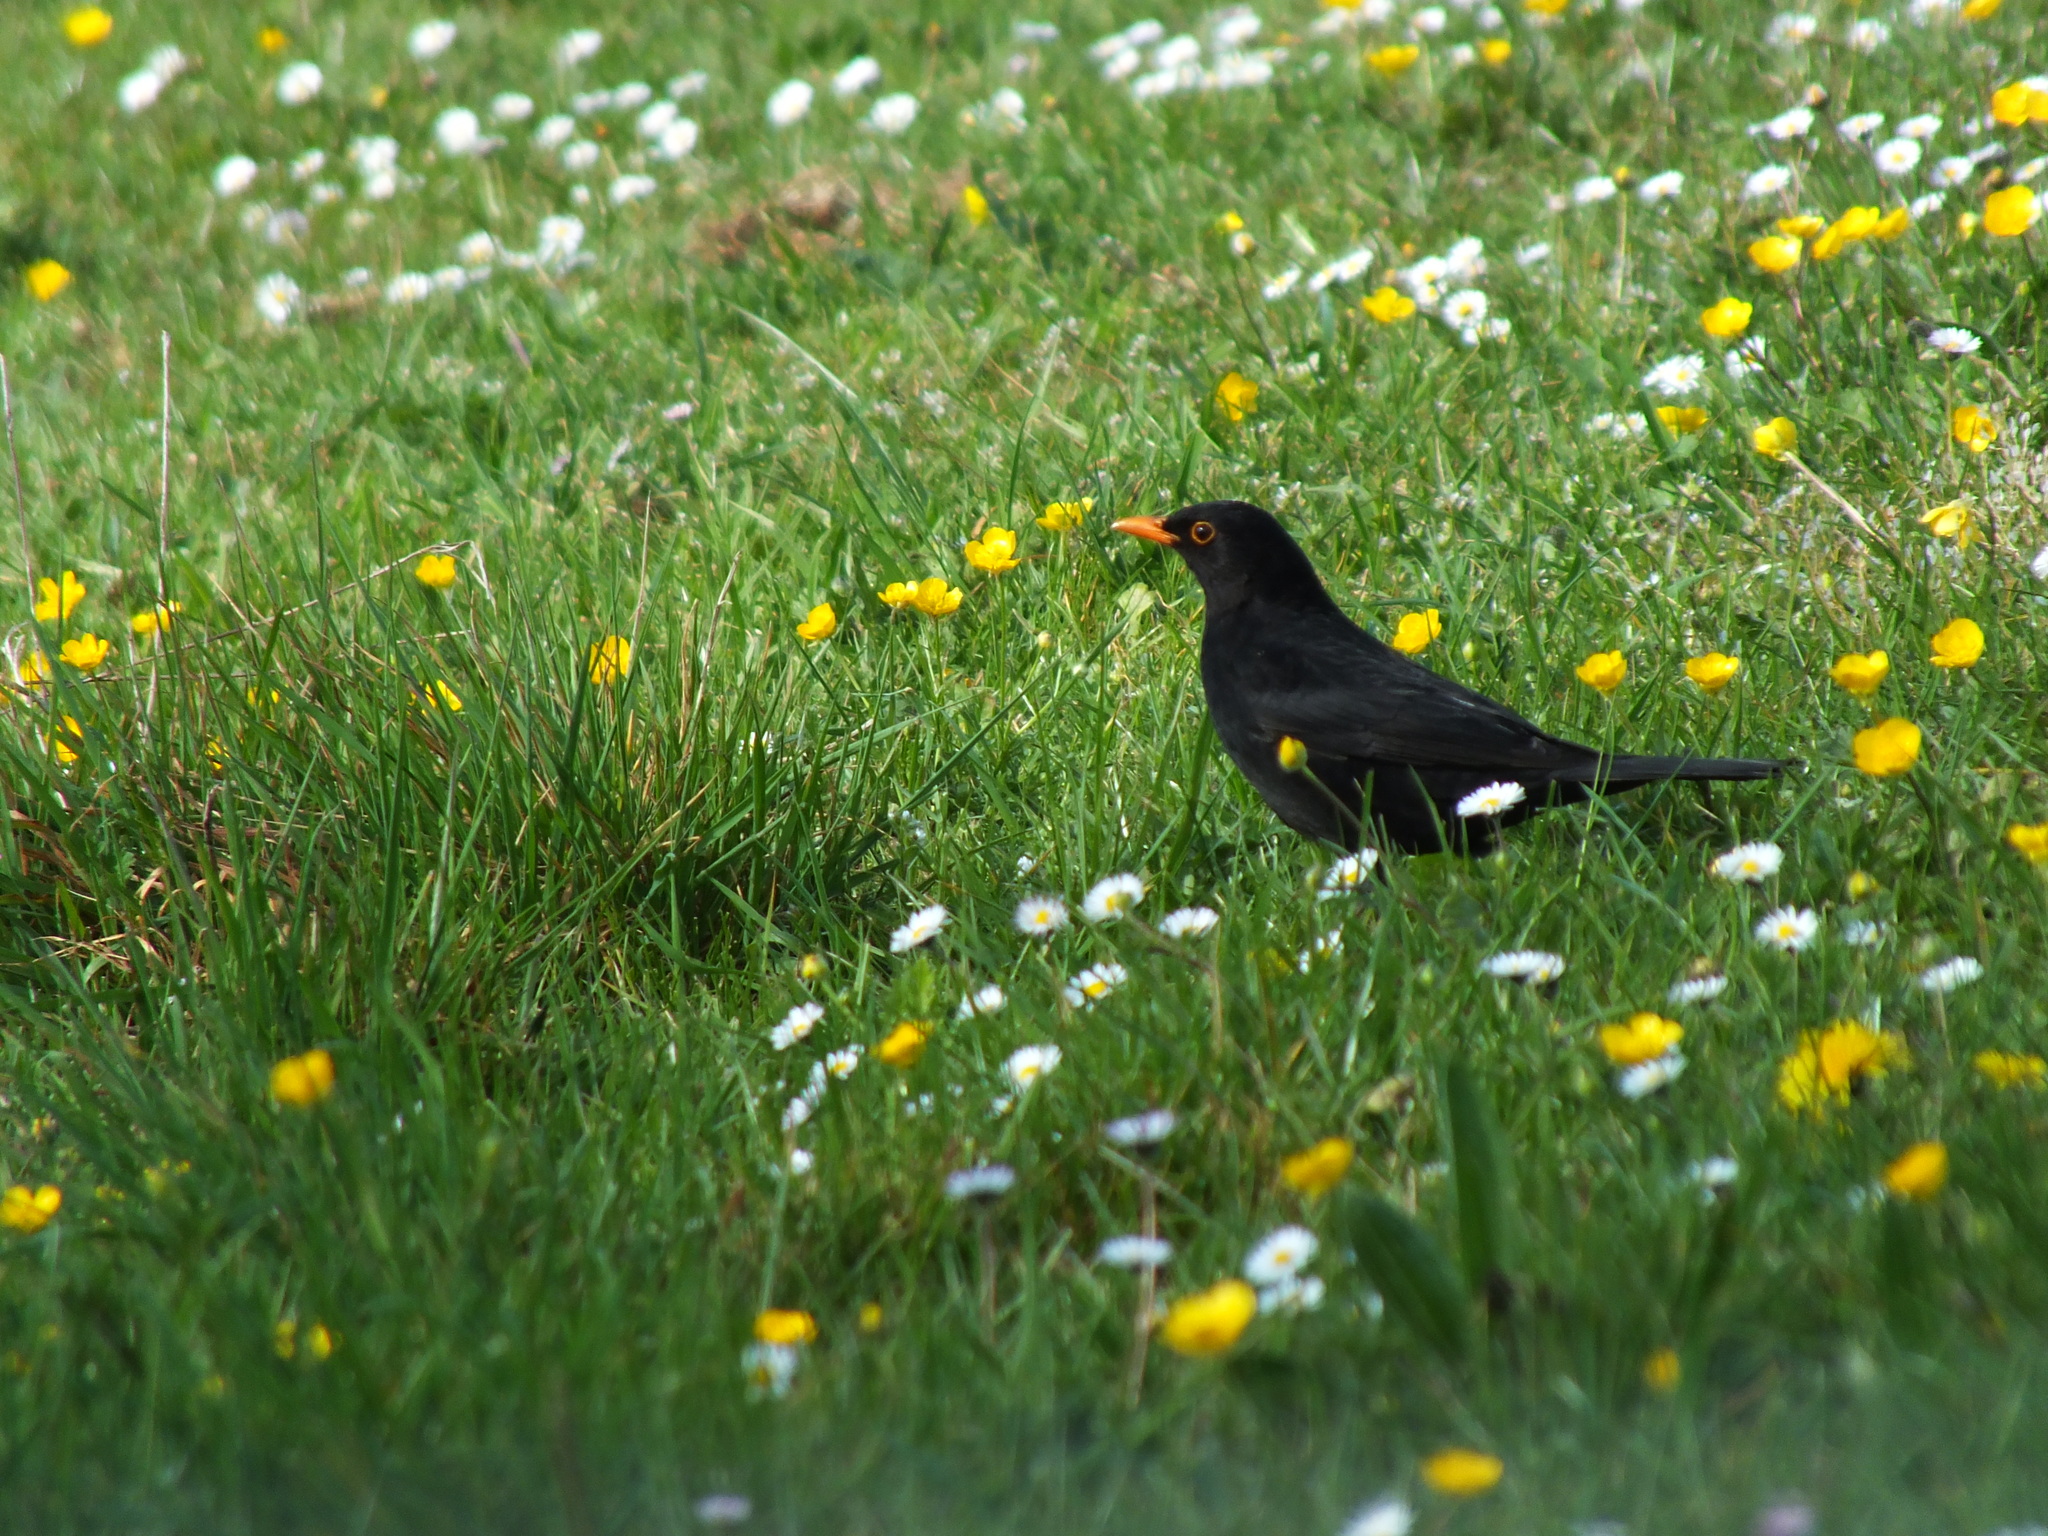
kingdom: Animalia
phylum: Chordata
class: Aves
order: Passeriformes
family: Turdidae
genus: Turdus
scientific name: Turdus merula
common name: Common blackbird
